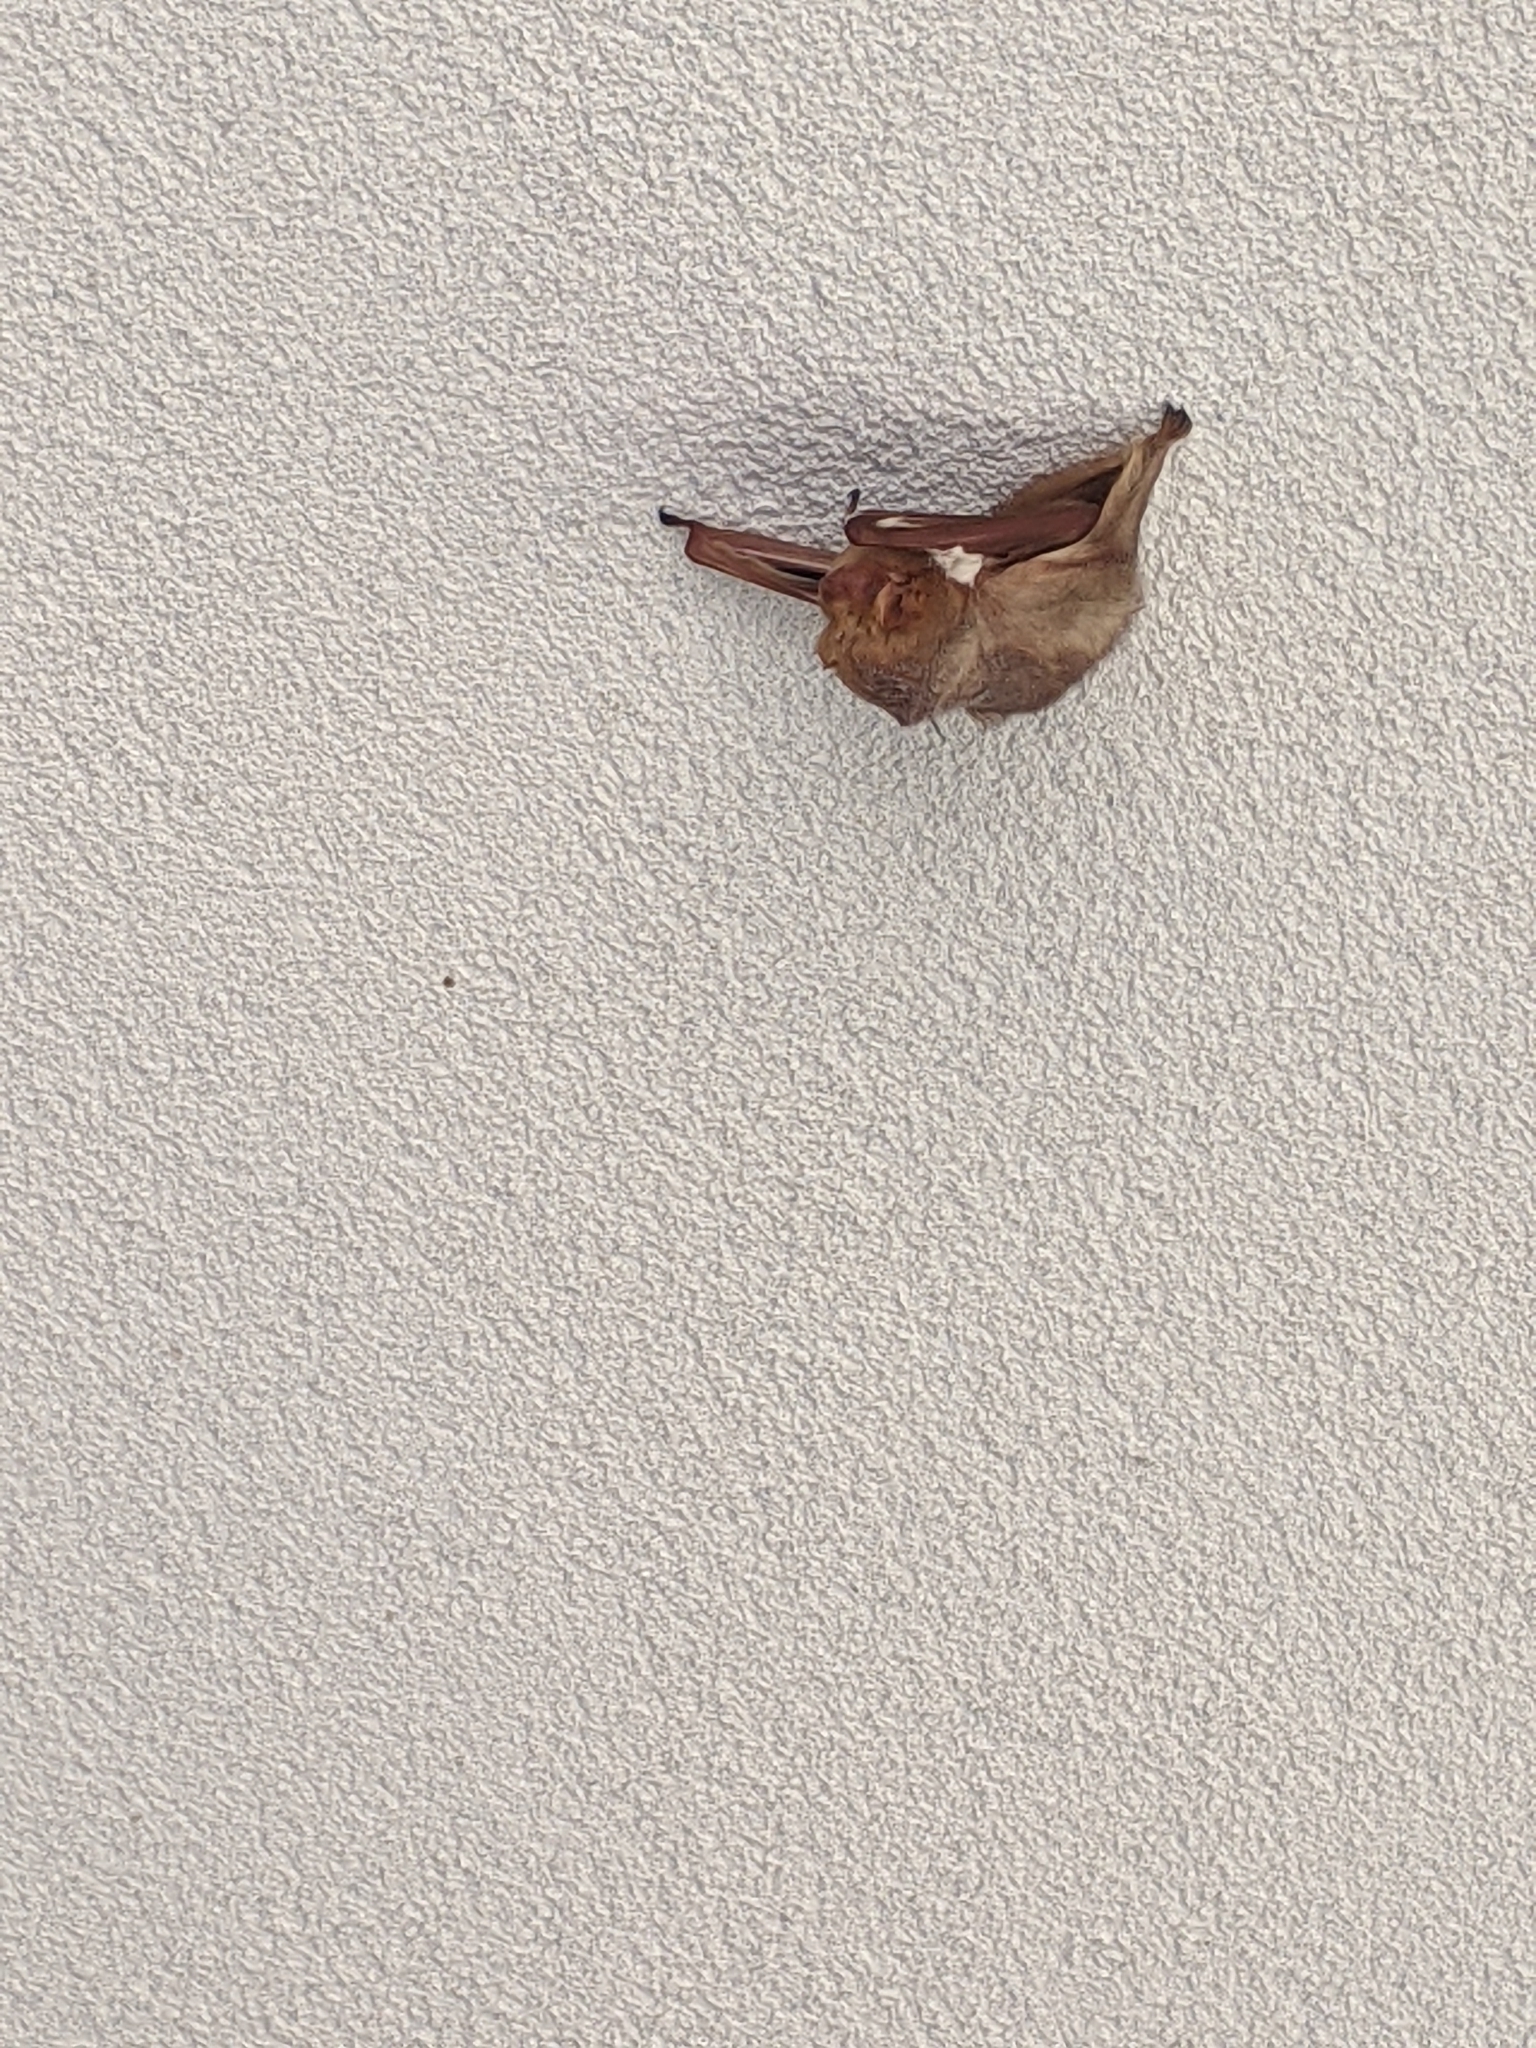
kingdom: Animalia
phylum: Chordata
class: Mammalia
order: Chiroptera
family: Vespertilionidae
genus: Lasiurus
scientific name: Lasiurus borealis
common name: Eastern red bat
